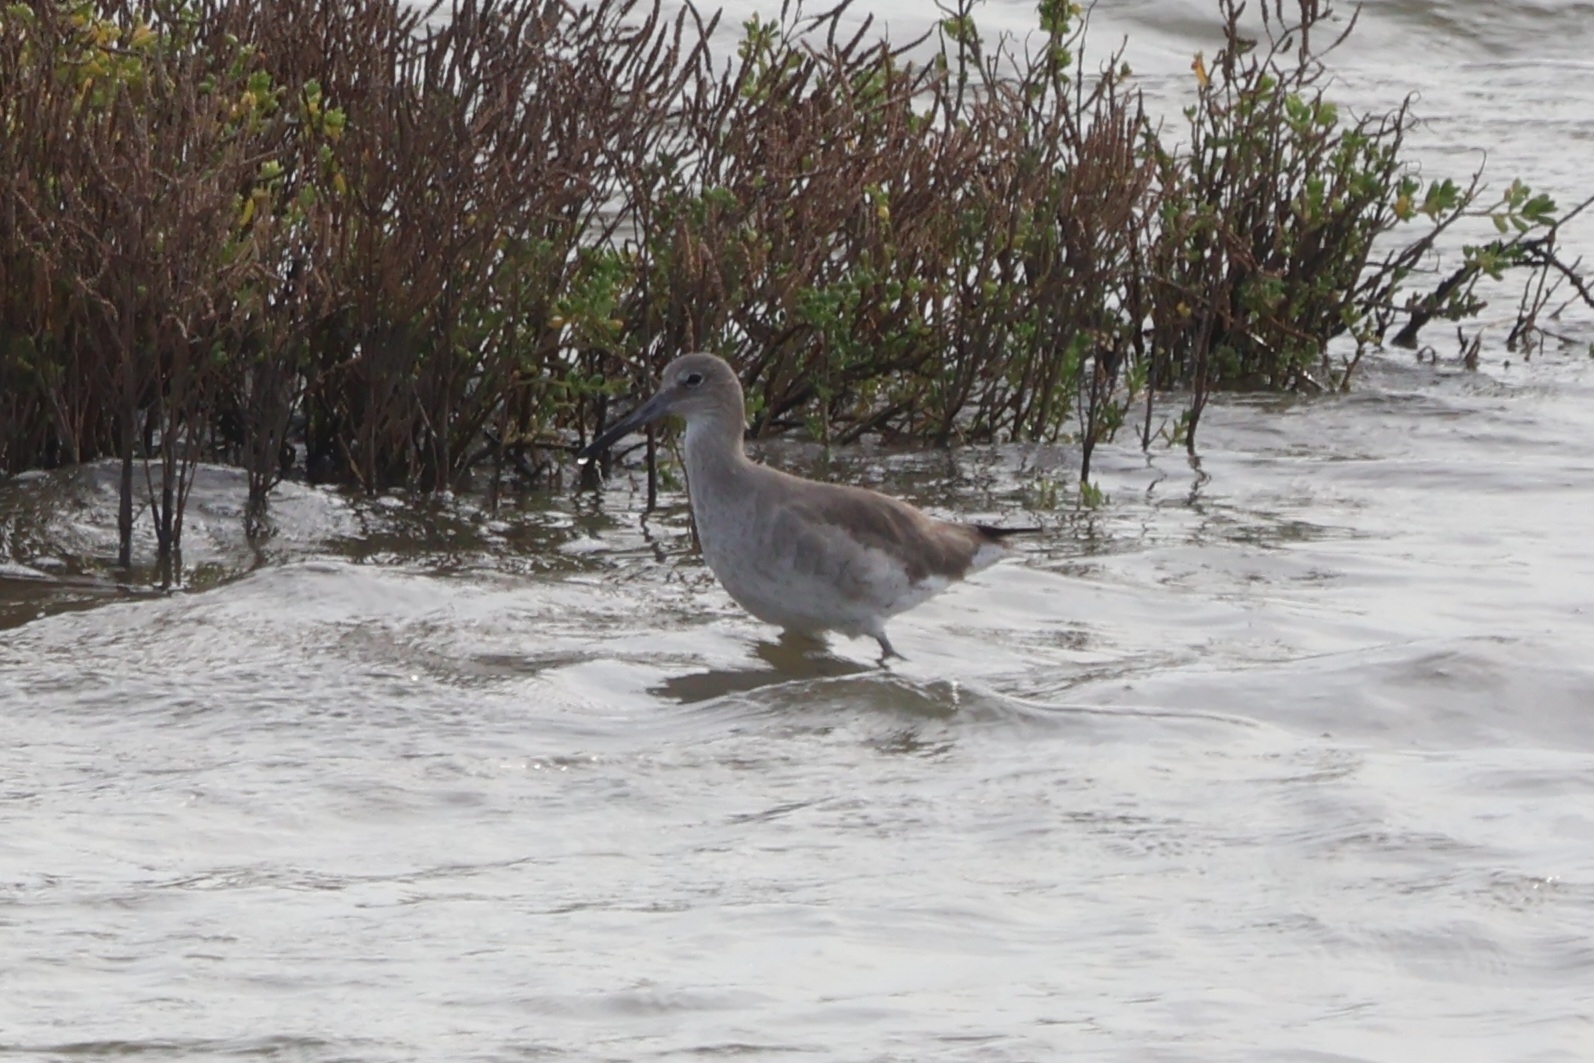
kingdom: Animalia
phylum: Chordata
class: Aves
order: Charadriiformes
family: Scolopacidae
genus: Tringa
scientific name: Tringa semipalmata
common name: Willet
